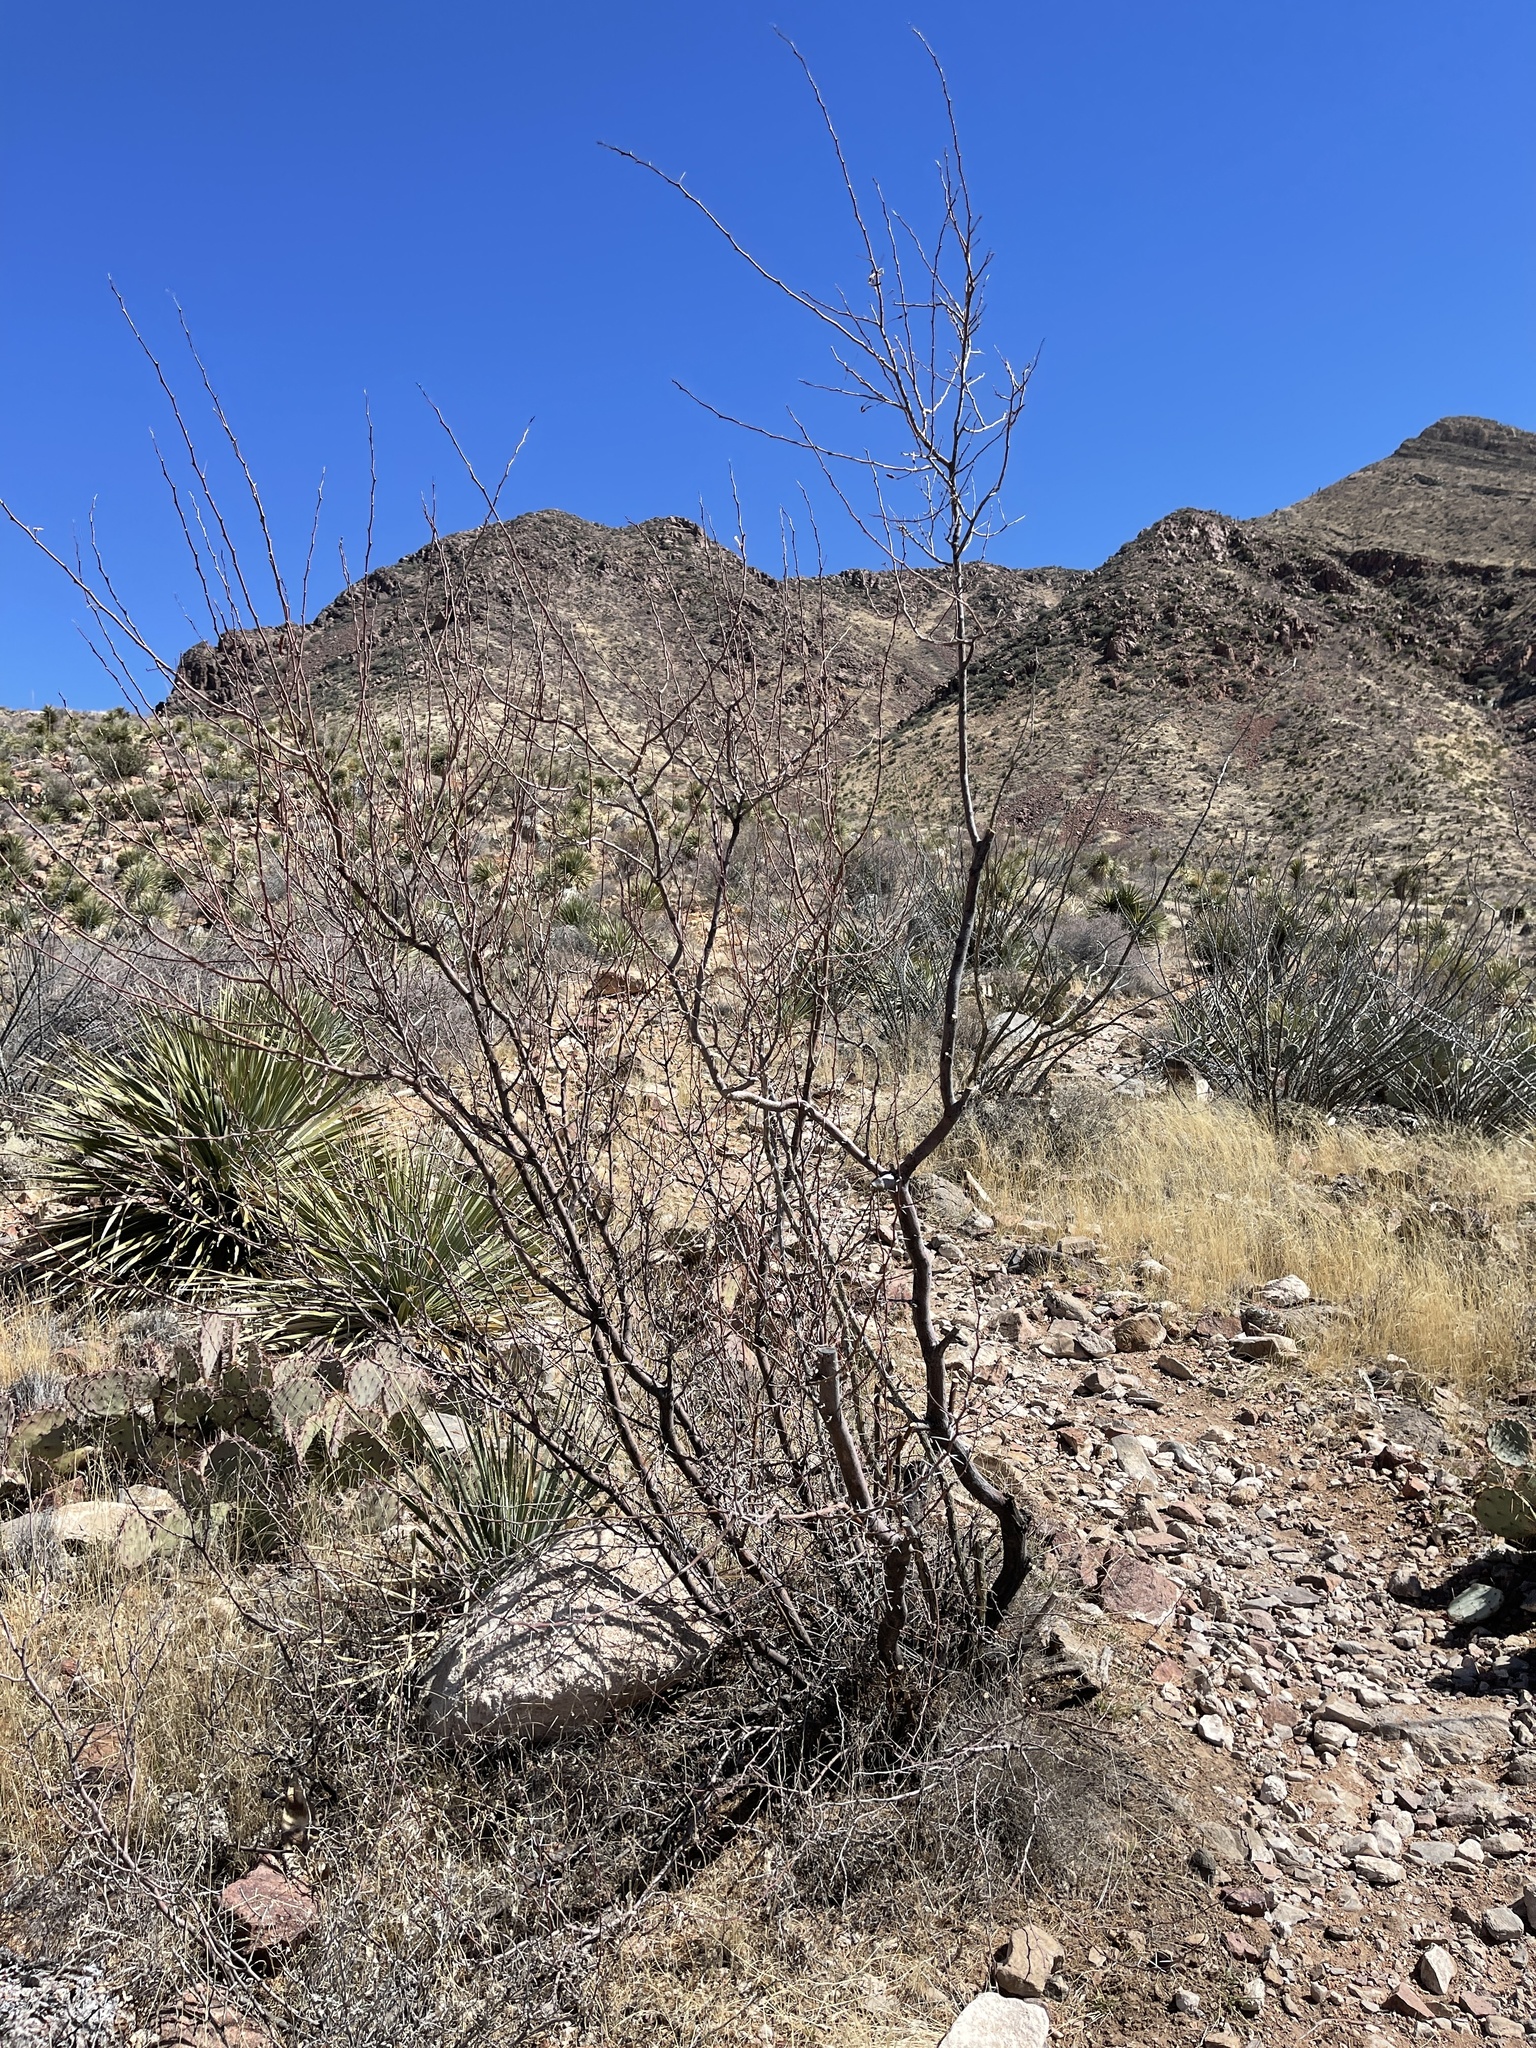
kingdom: Plantae
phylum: Tracheophyta
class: Magnoliopsida
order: Fabales
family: Fabaceae
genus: Vachellia
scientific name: Vachellia constricta
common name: Mescat acacia
